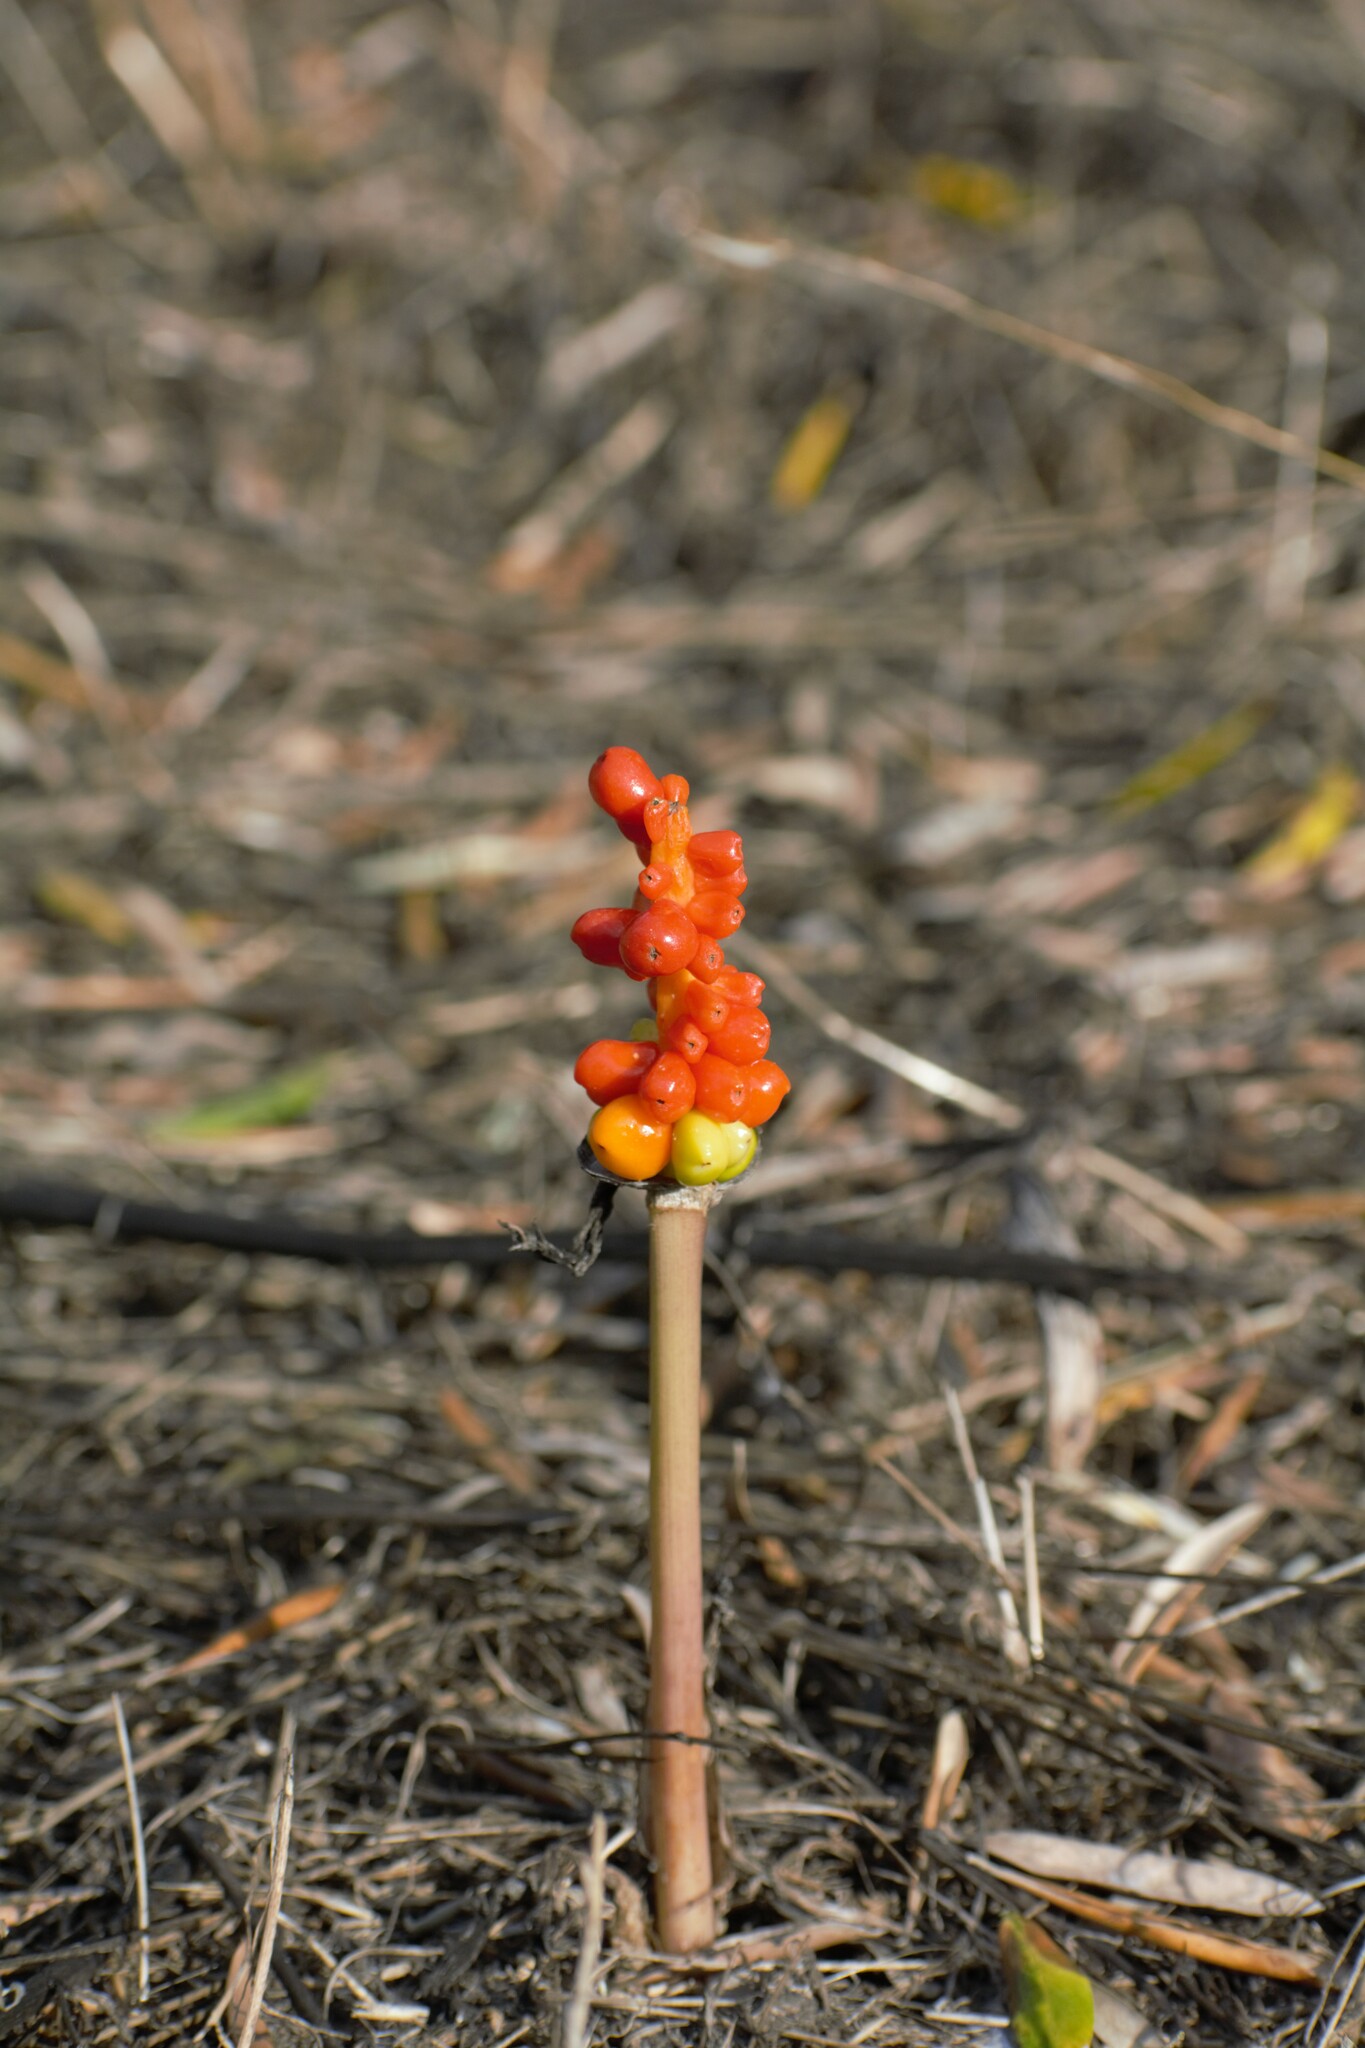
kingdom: Plantae
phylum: Tracheophyta
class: Liliopsida
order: Alismatales
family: Araceae
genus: Arum
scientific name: Arum italicum
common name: Italian lords-and-ladies
